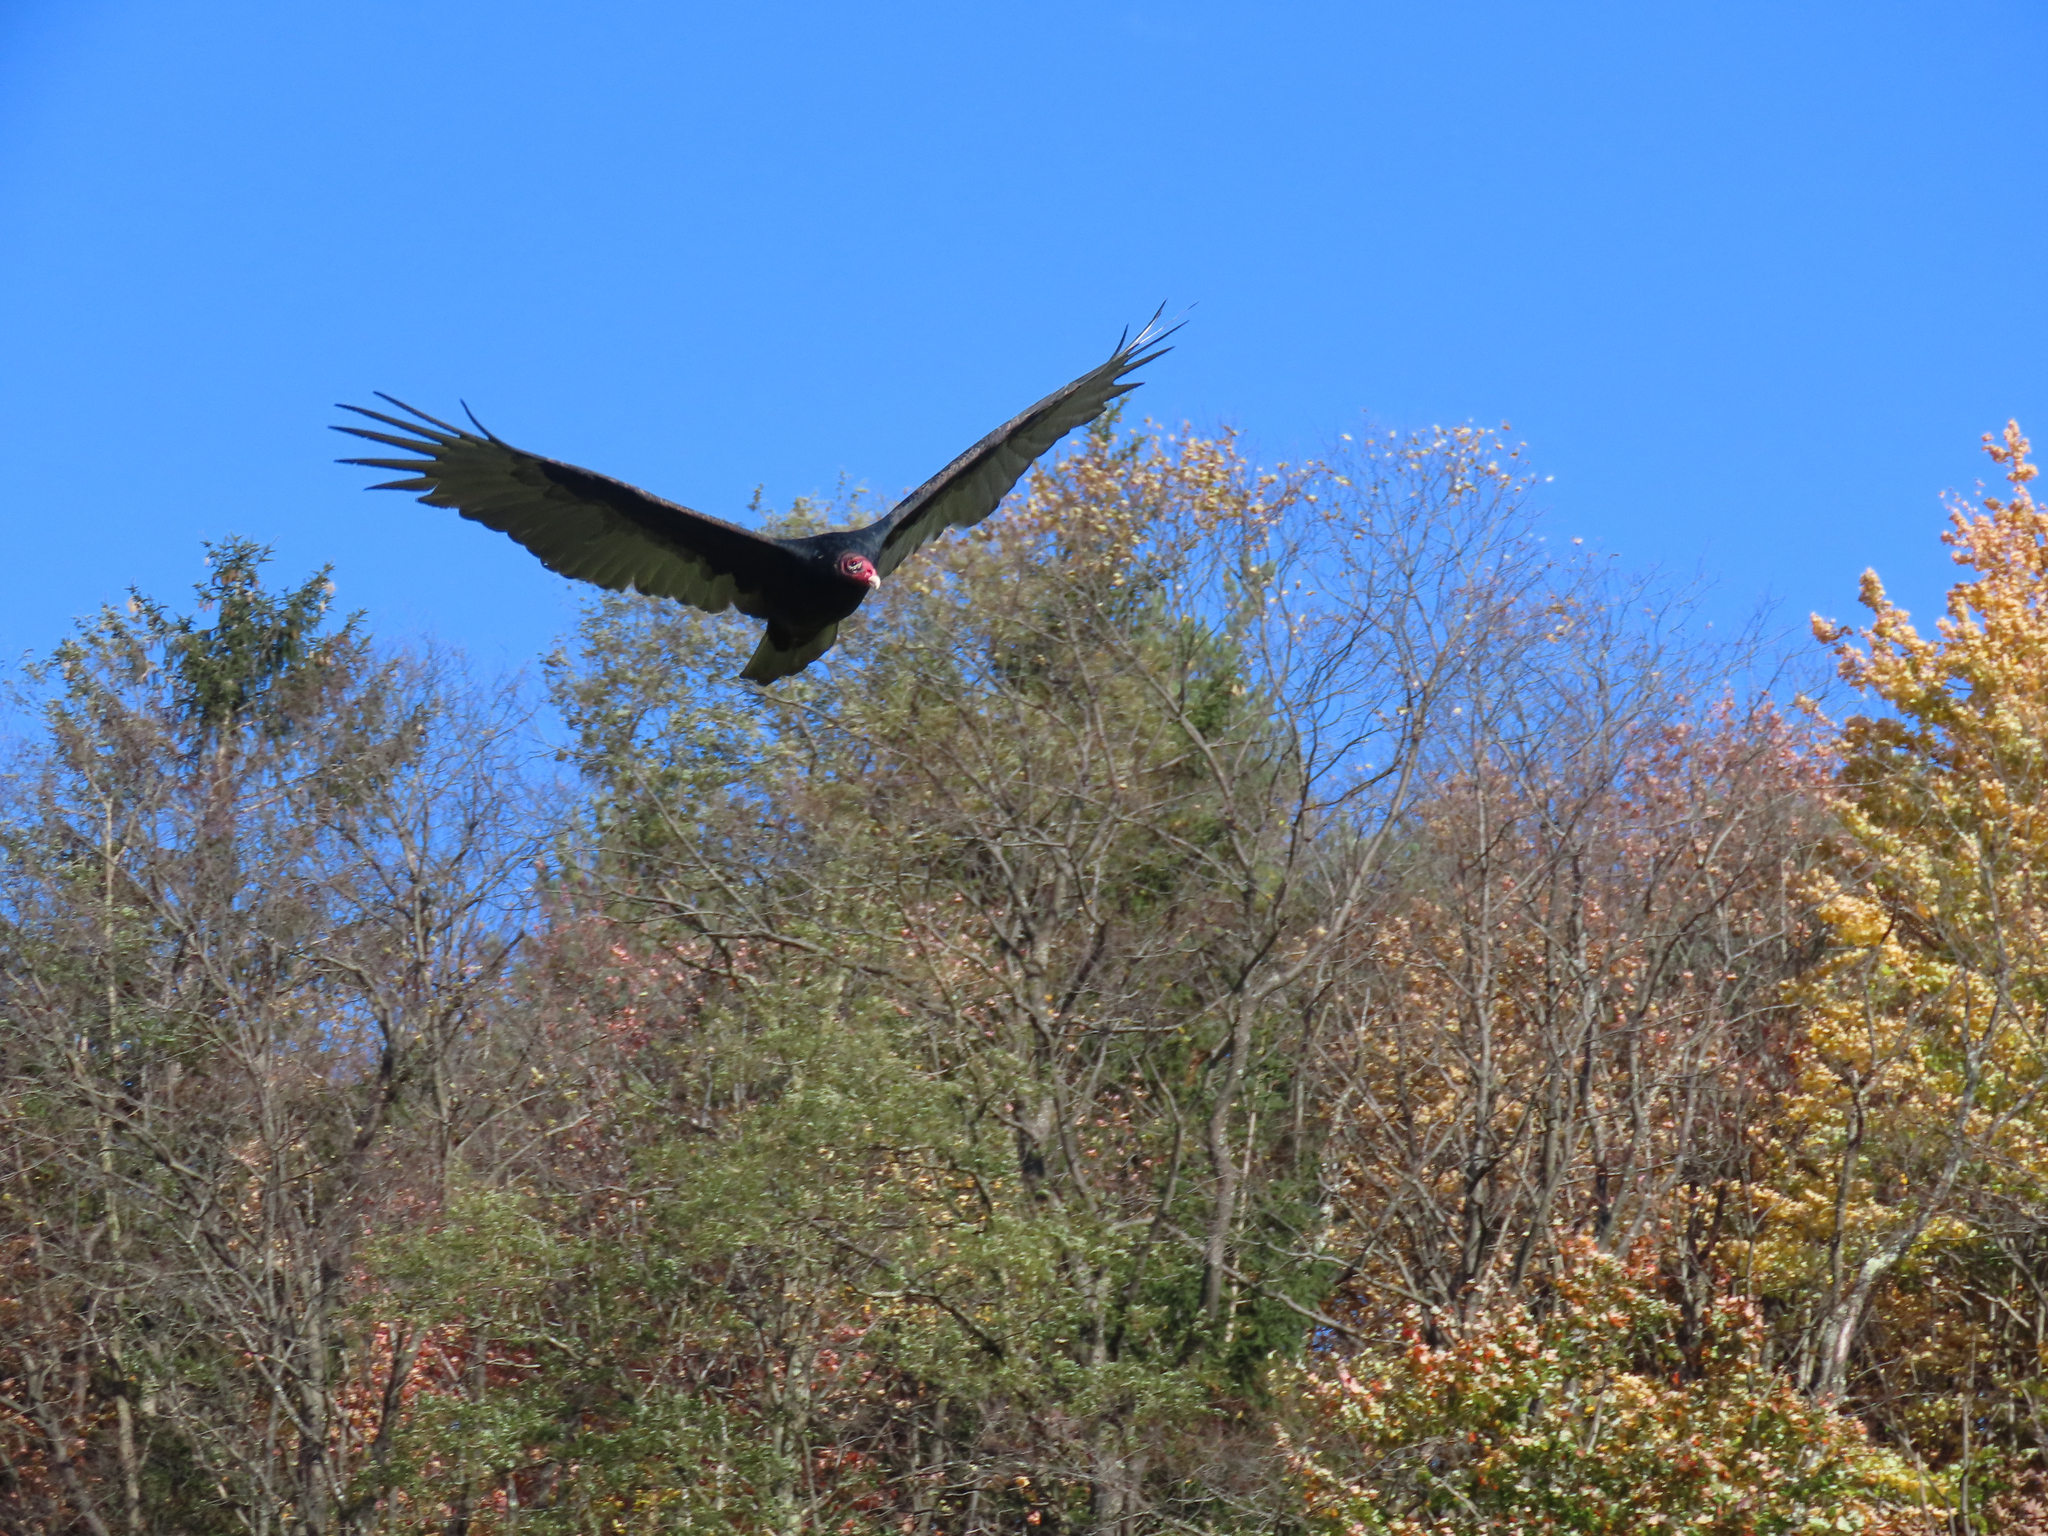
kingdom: Animalia
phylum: Chordata
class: Aves
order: Accipitriformes
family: Cathartidae
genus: Cathartes
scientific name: Cathartes aura
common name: Turkey vulture
